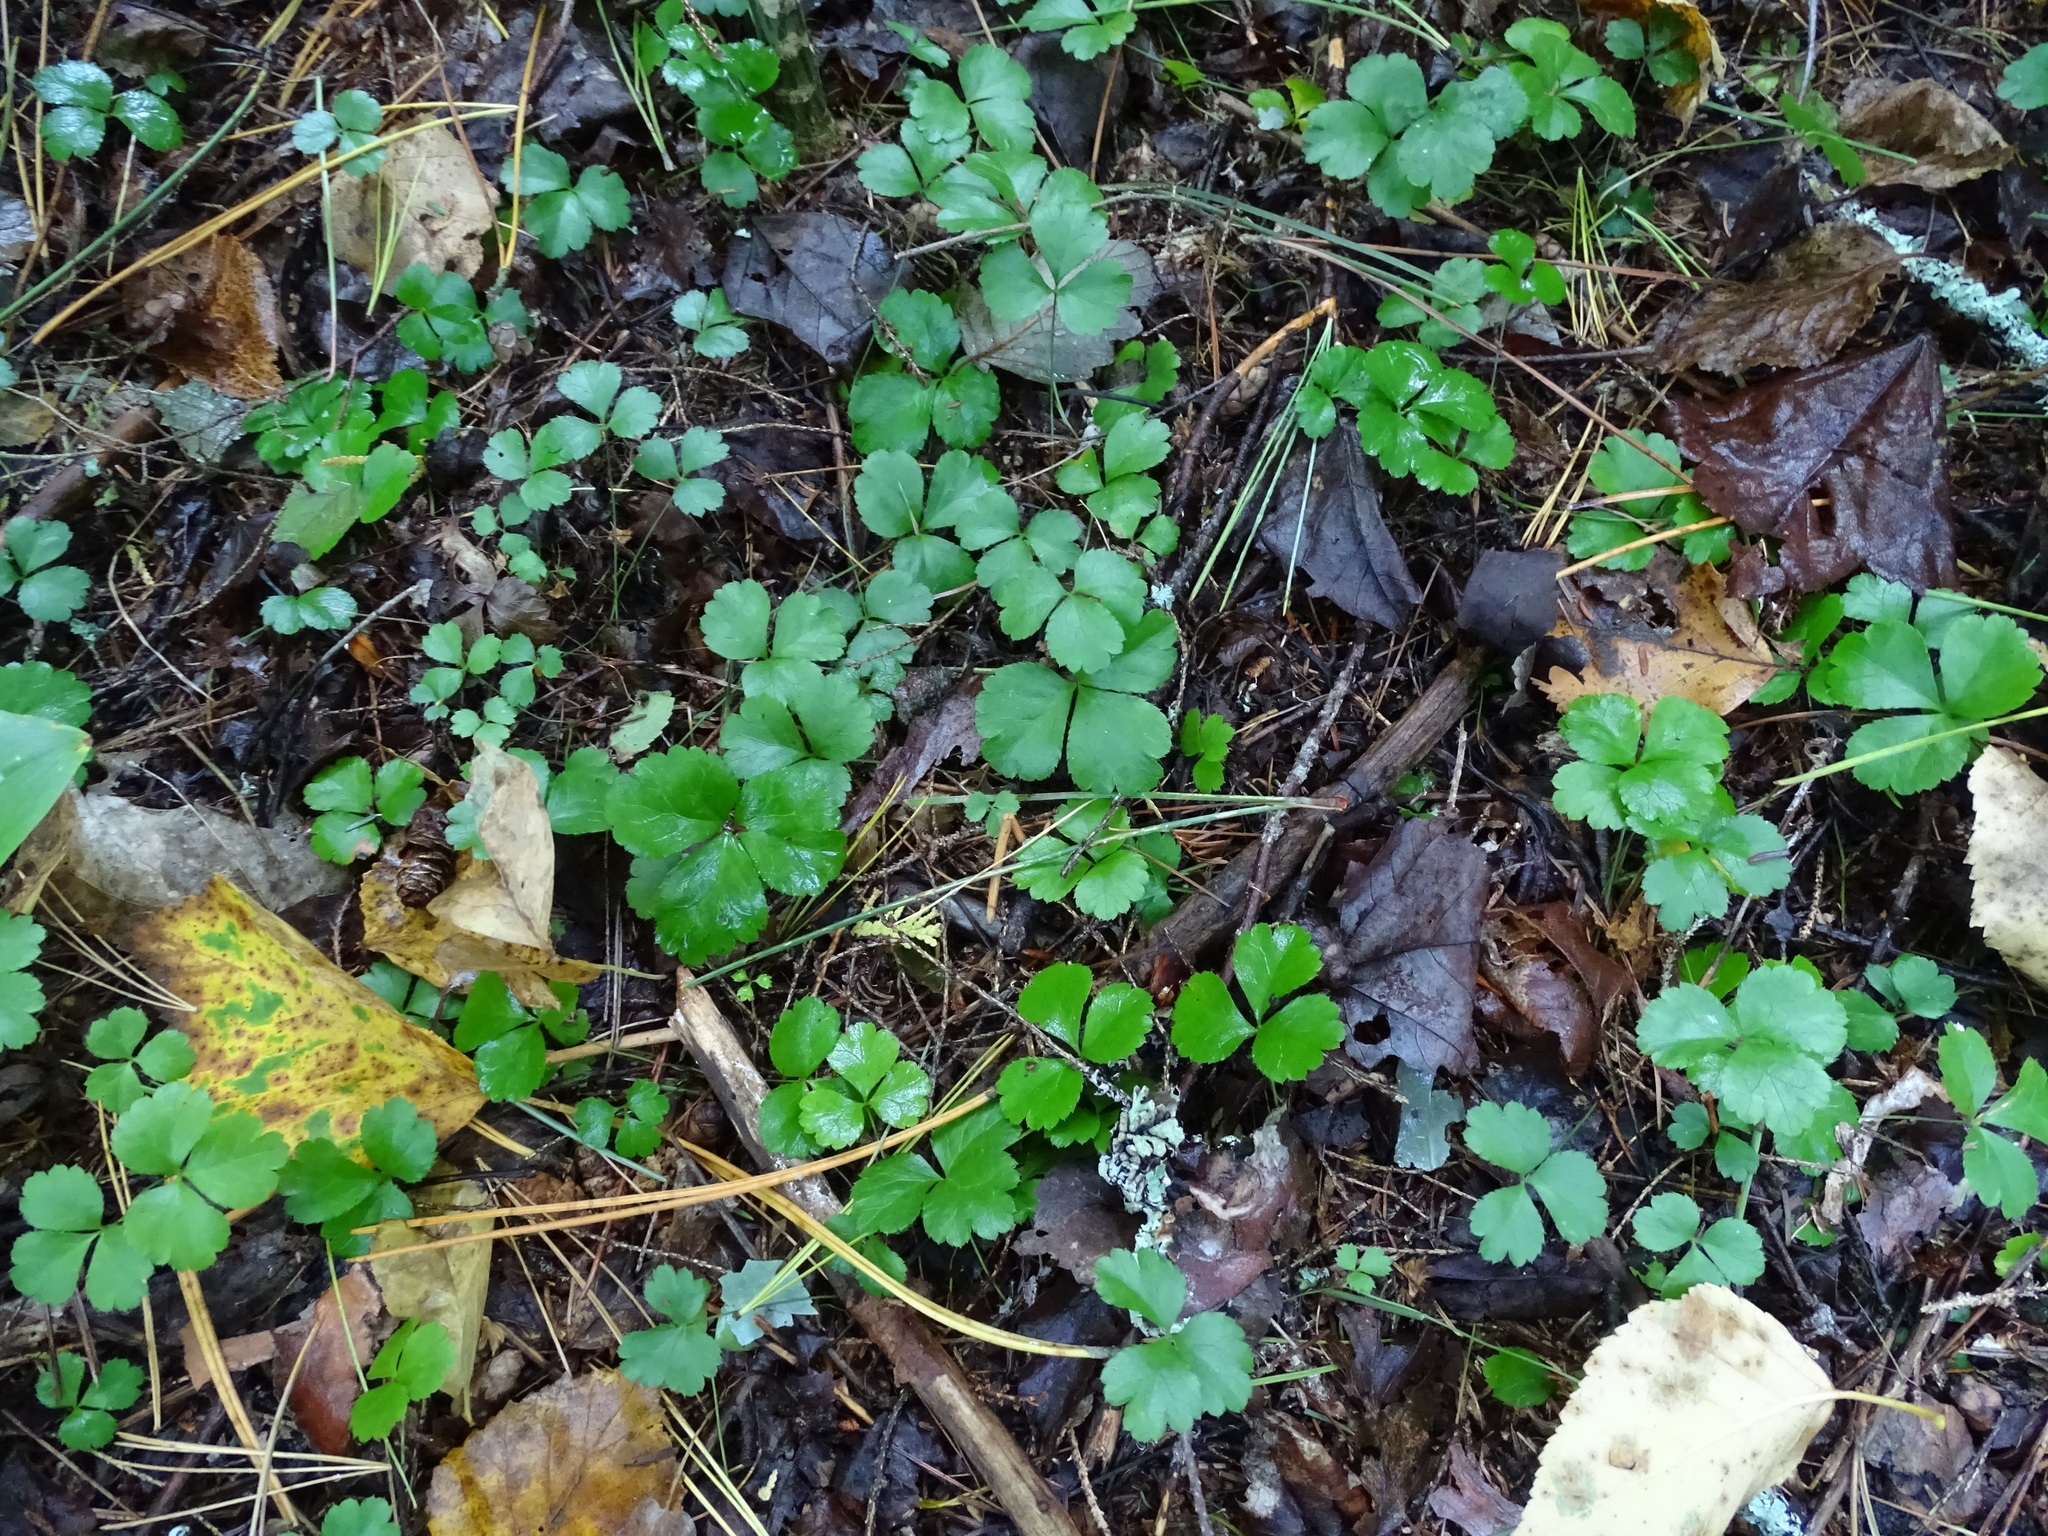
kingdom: Plantae
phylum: Tracheophyta
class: Magnoliopsida
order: Ranunculales
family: Ranunculaceae
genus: Coptis
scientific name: Coptis trifolia
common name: Canker-root
